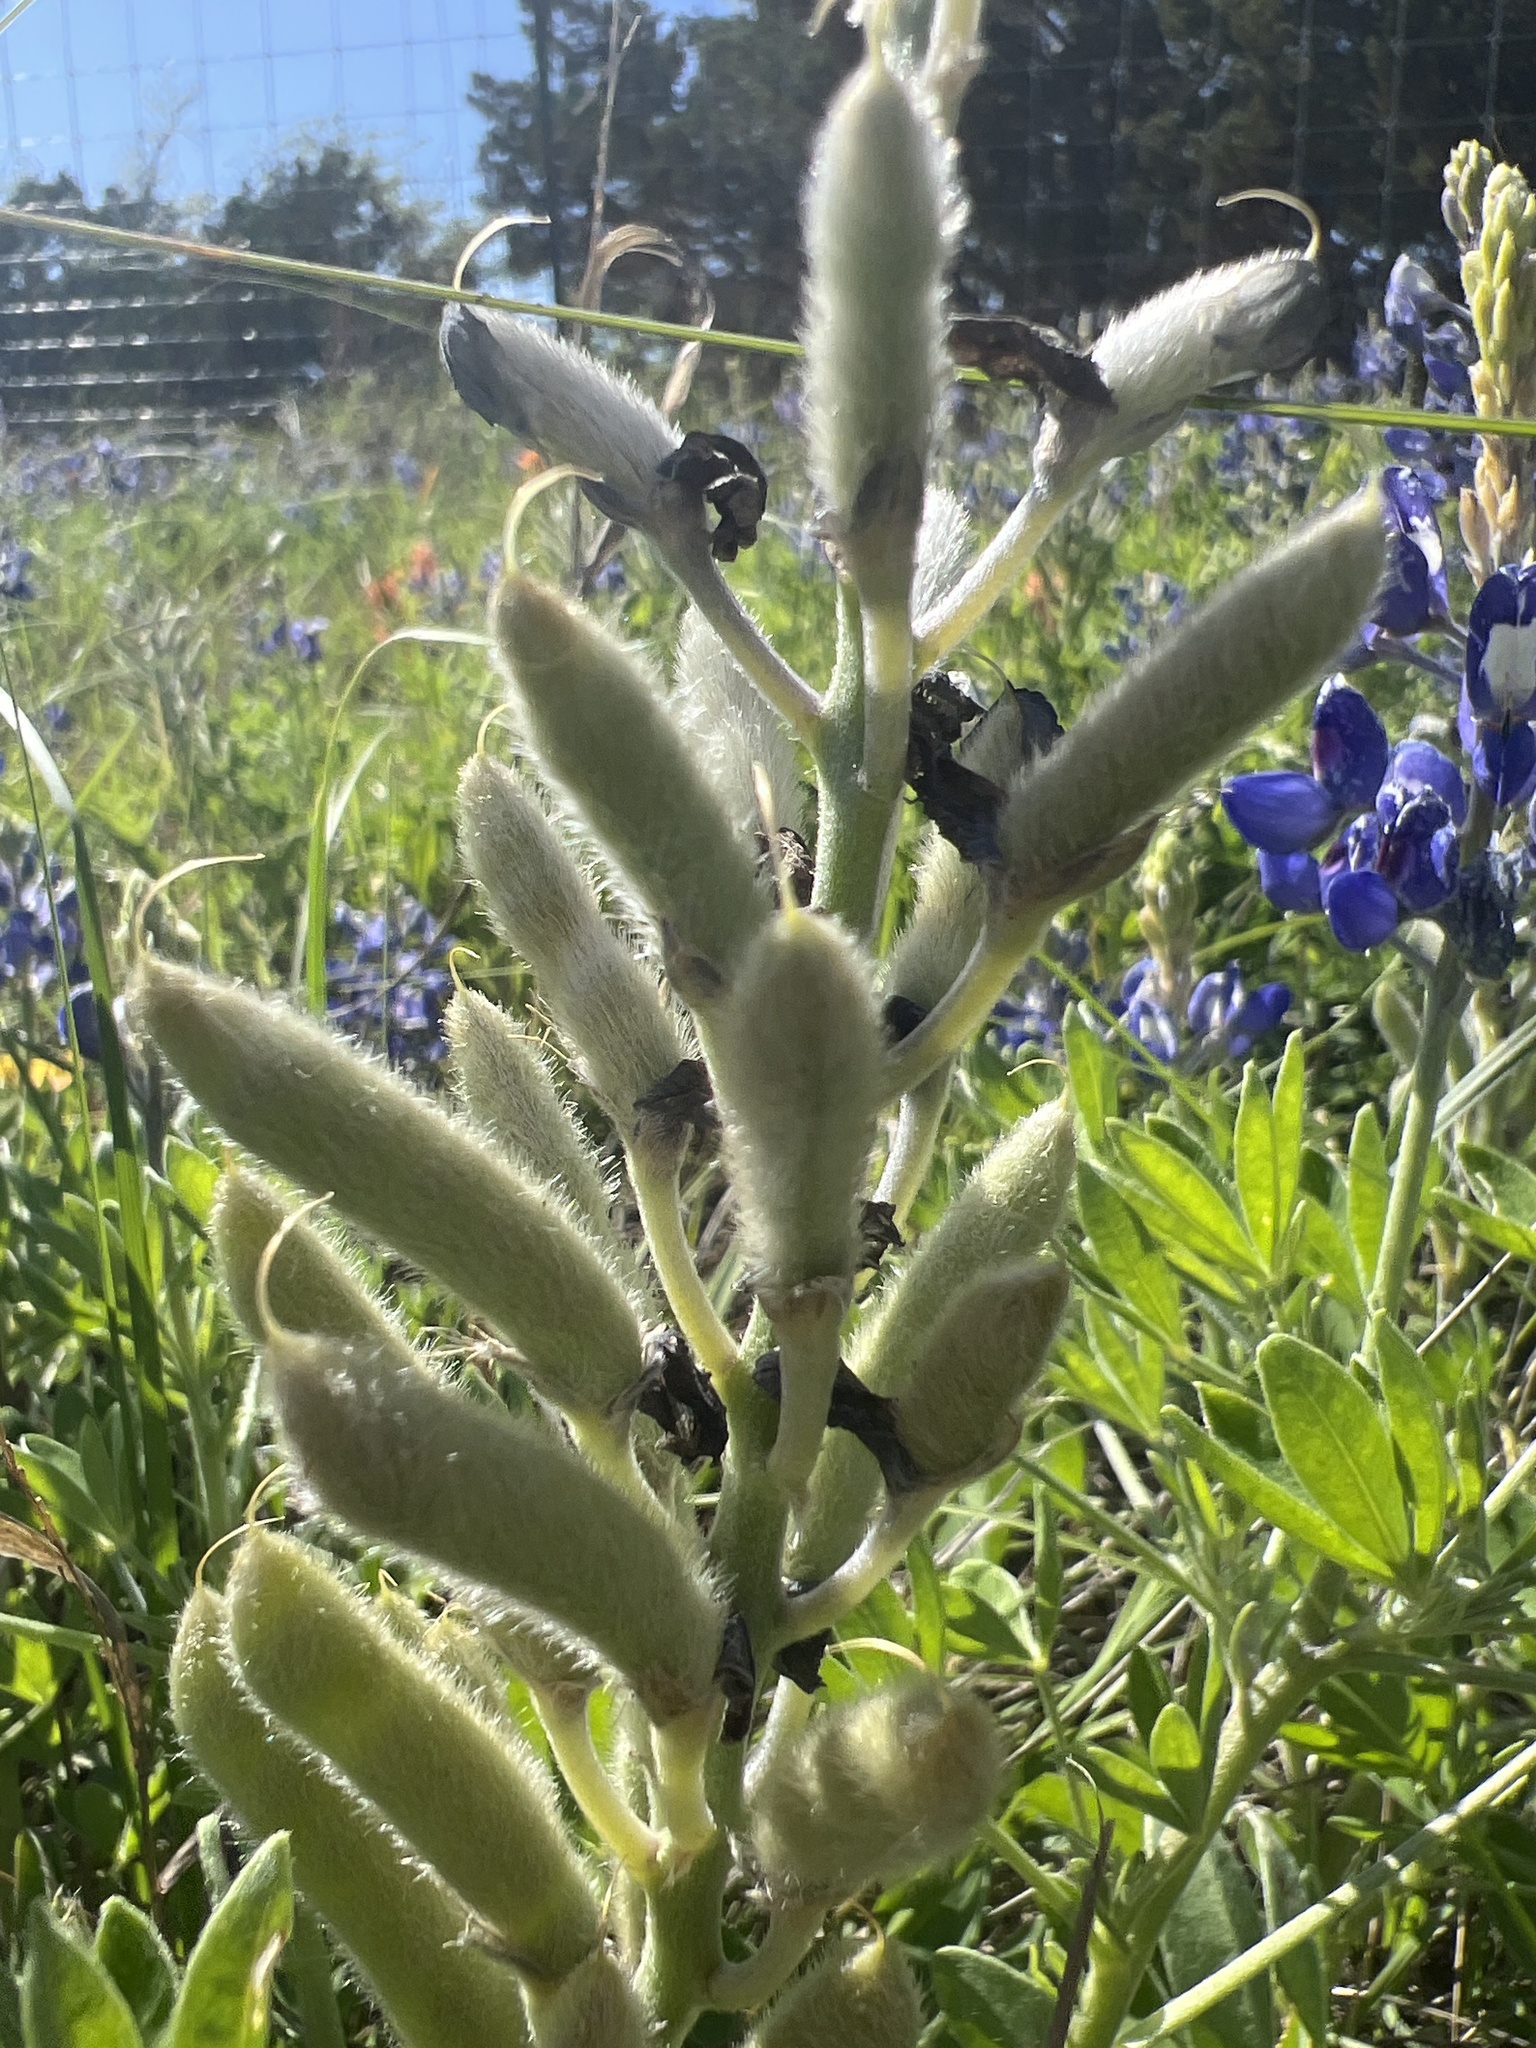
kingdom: Plantae
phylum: Tracheophyta
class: Magnoliopsida
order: Fabales
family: Fabaceae
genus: Lupinus
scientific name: Lupinus texensis
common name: Texas bluebonnet
